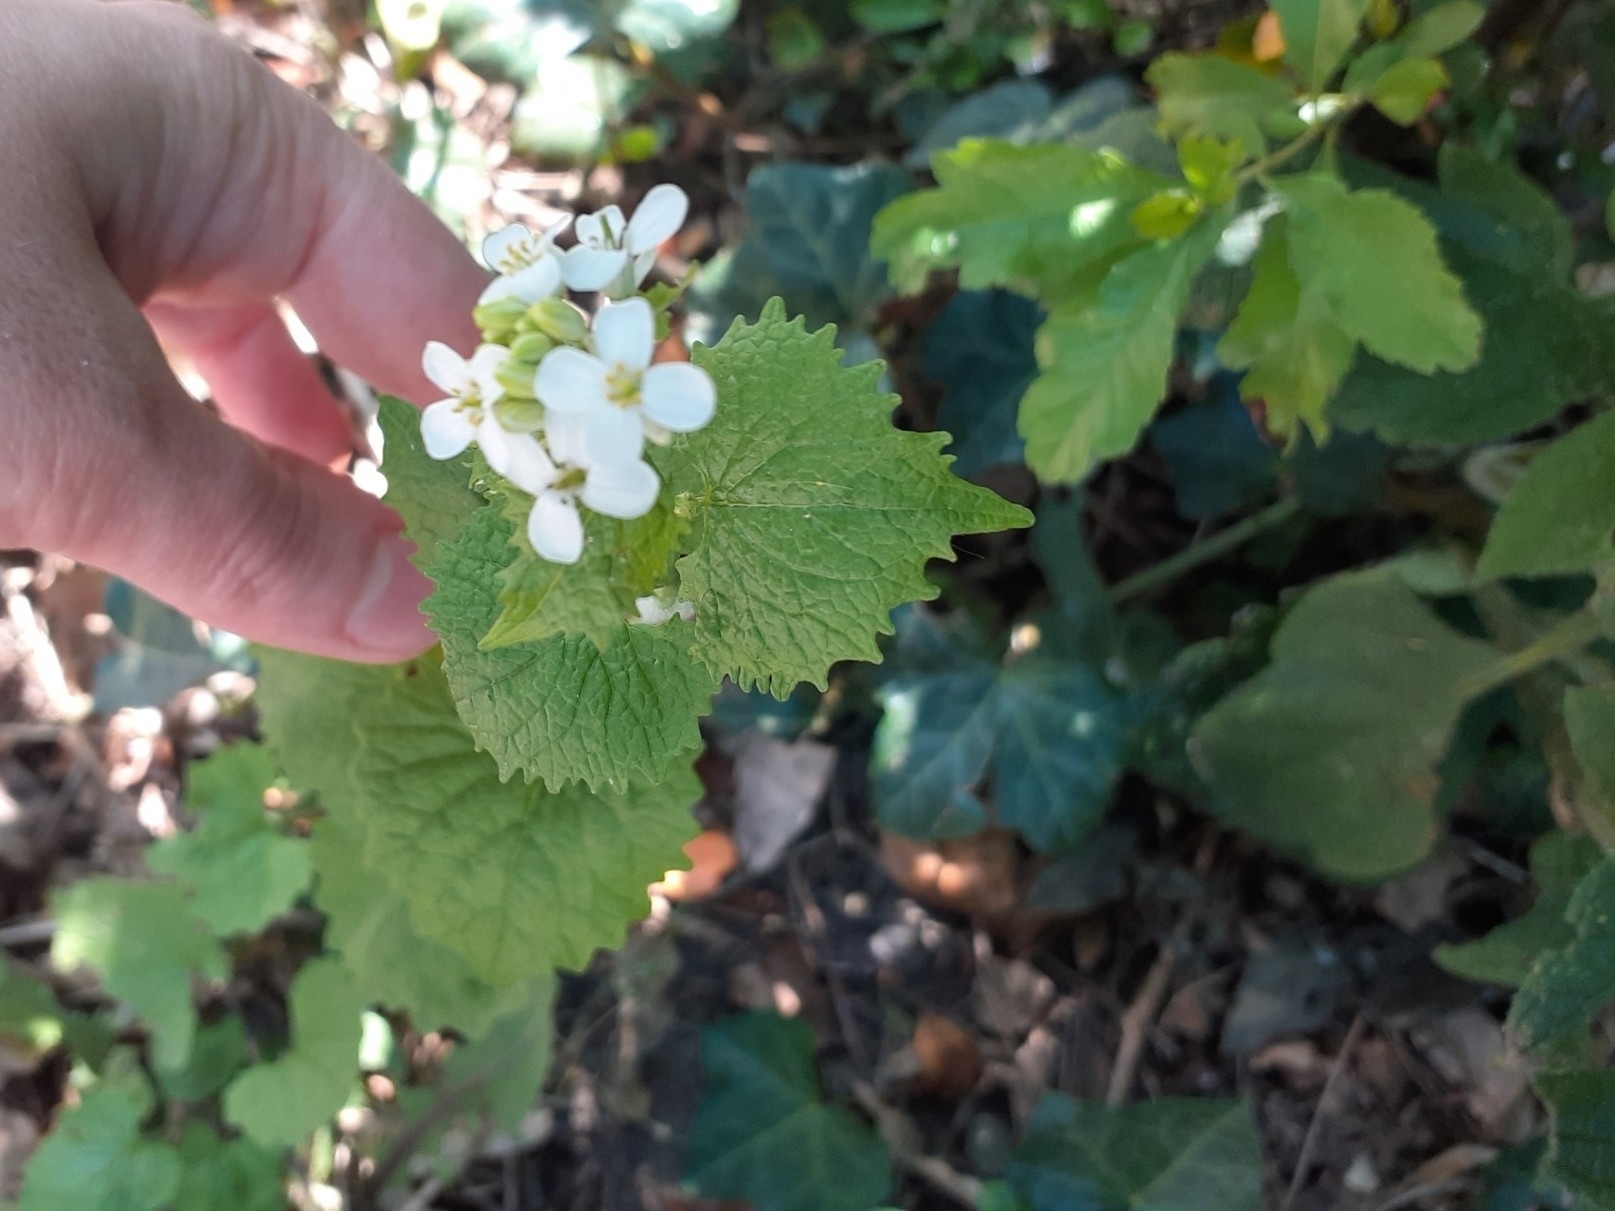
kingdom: Plantae
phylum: Tracheophyta
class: Magnoliopsida
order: Brassicales
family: Brassicaceae
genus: Alliaria
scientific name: Alliaria petiolata
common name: Garlic mustard
